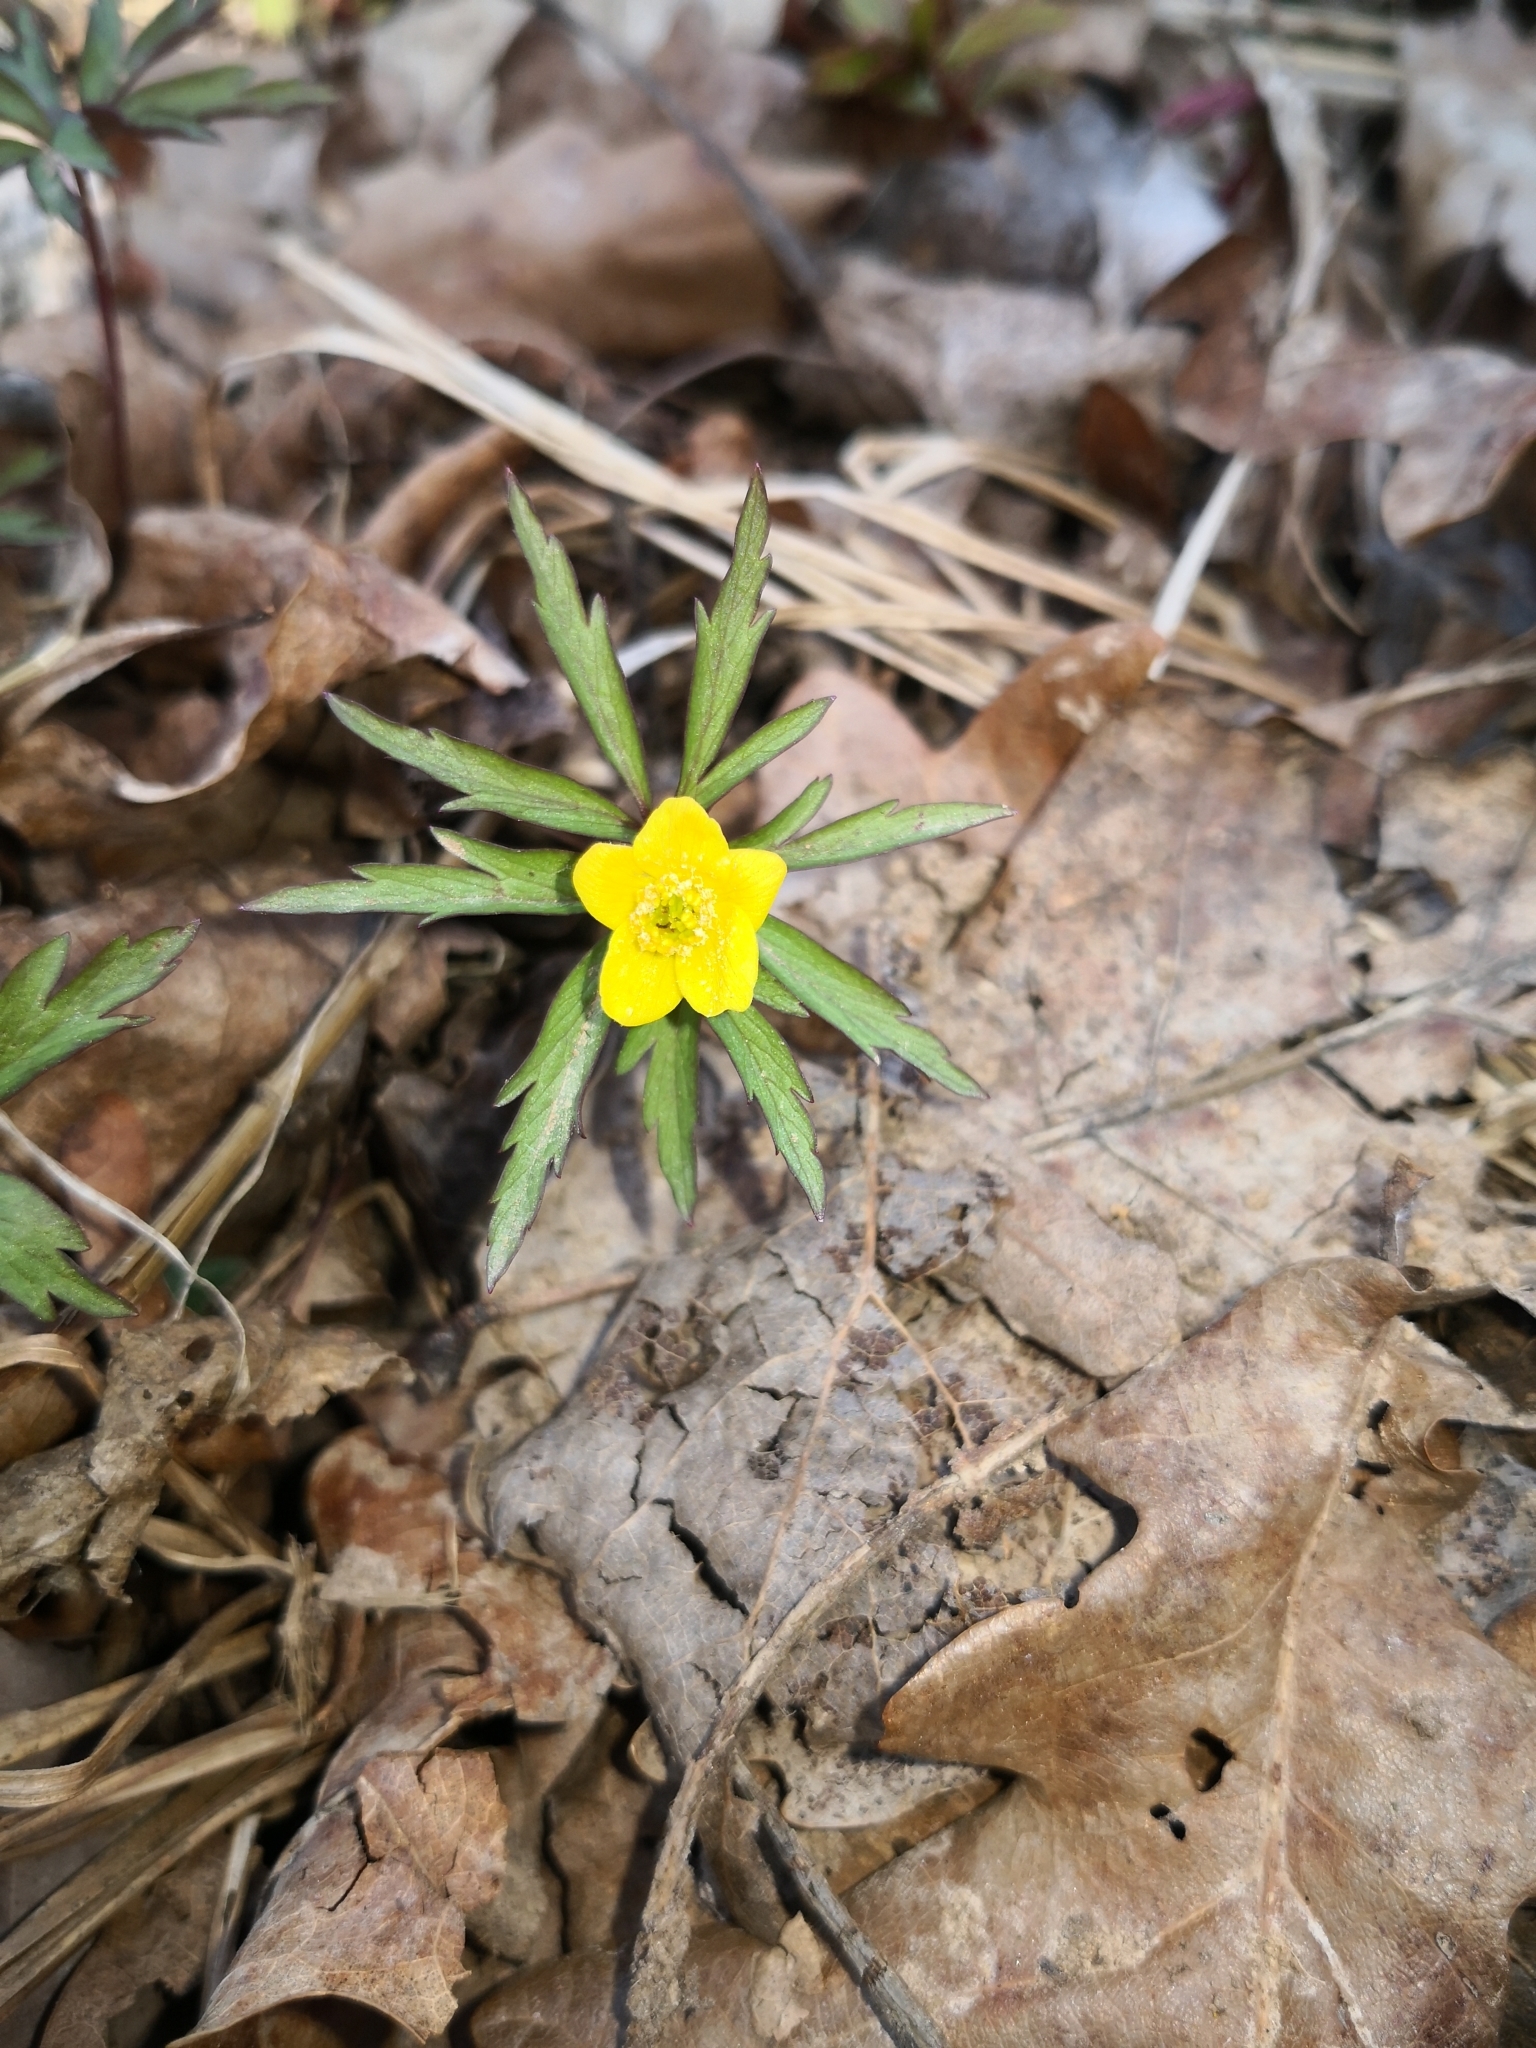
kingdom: Plantae
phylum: Tracheophyta
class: Magnoliopsida
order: Ranunculales
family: Ranunculaceae
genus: Anemone
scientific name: Anemone ranunculoides
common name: Yellow anemone
